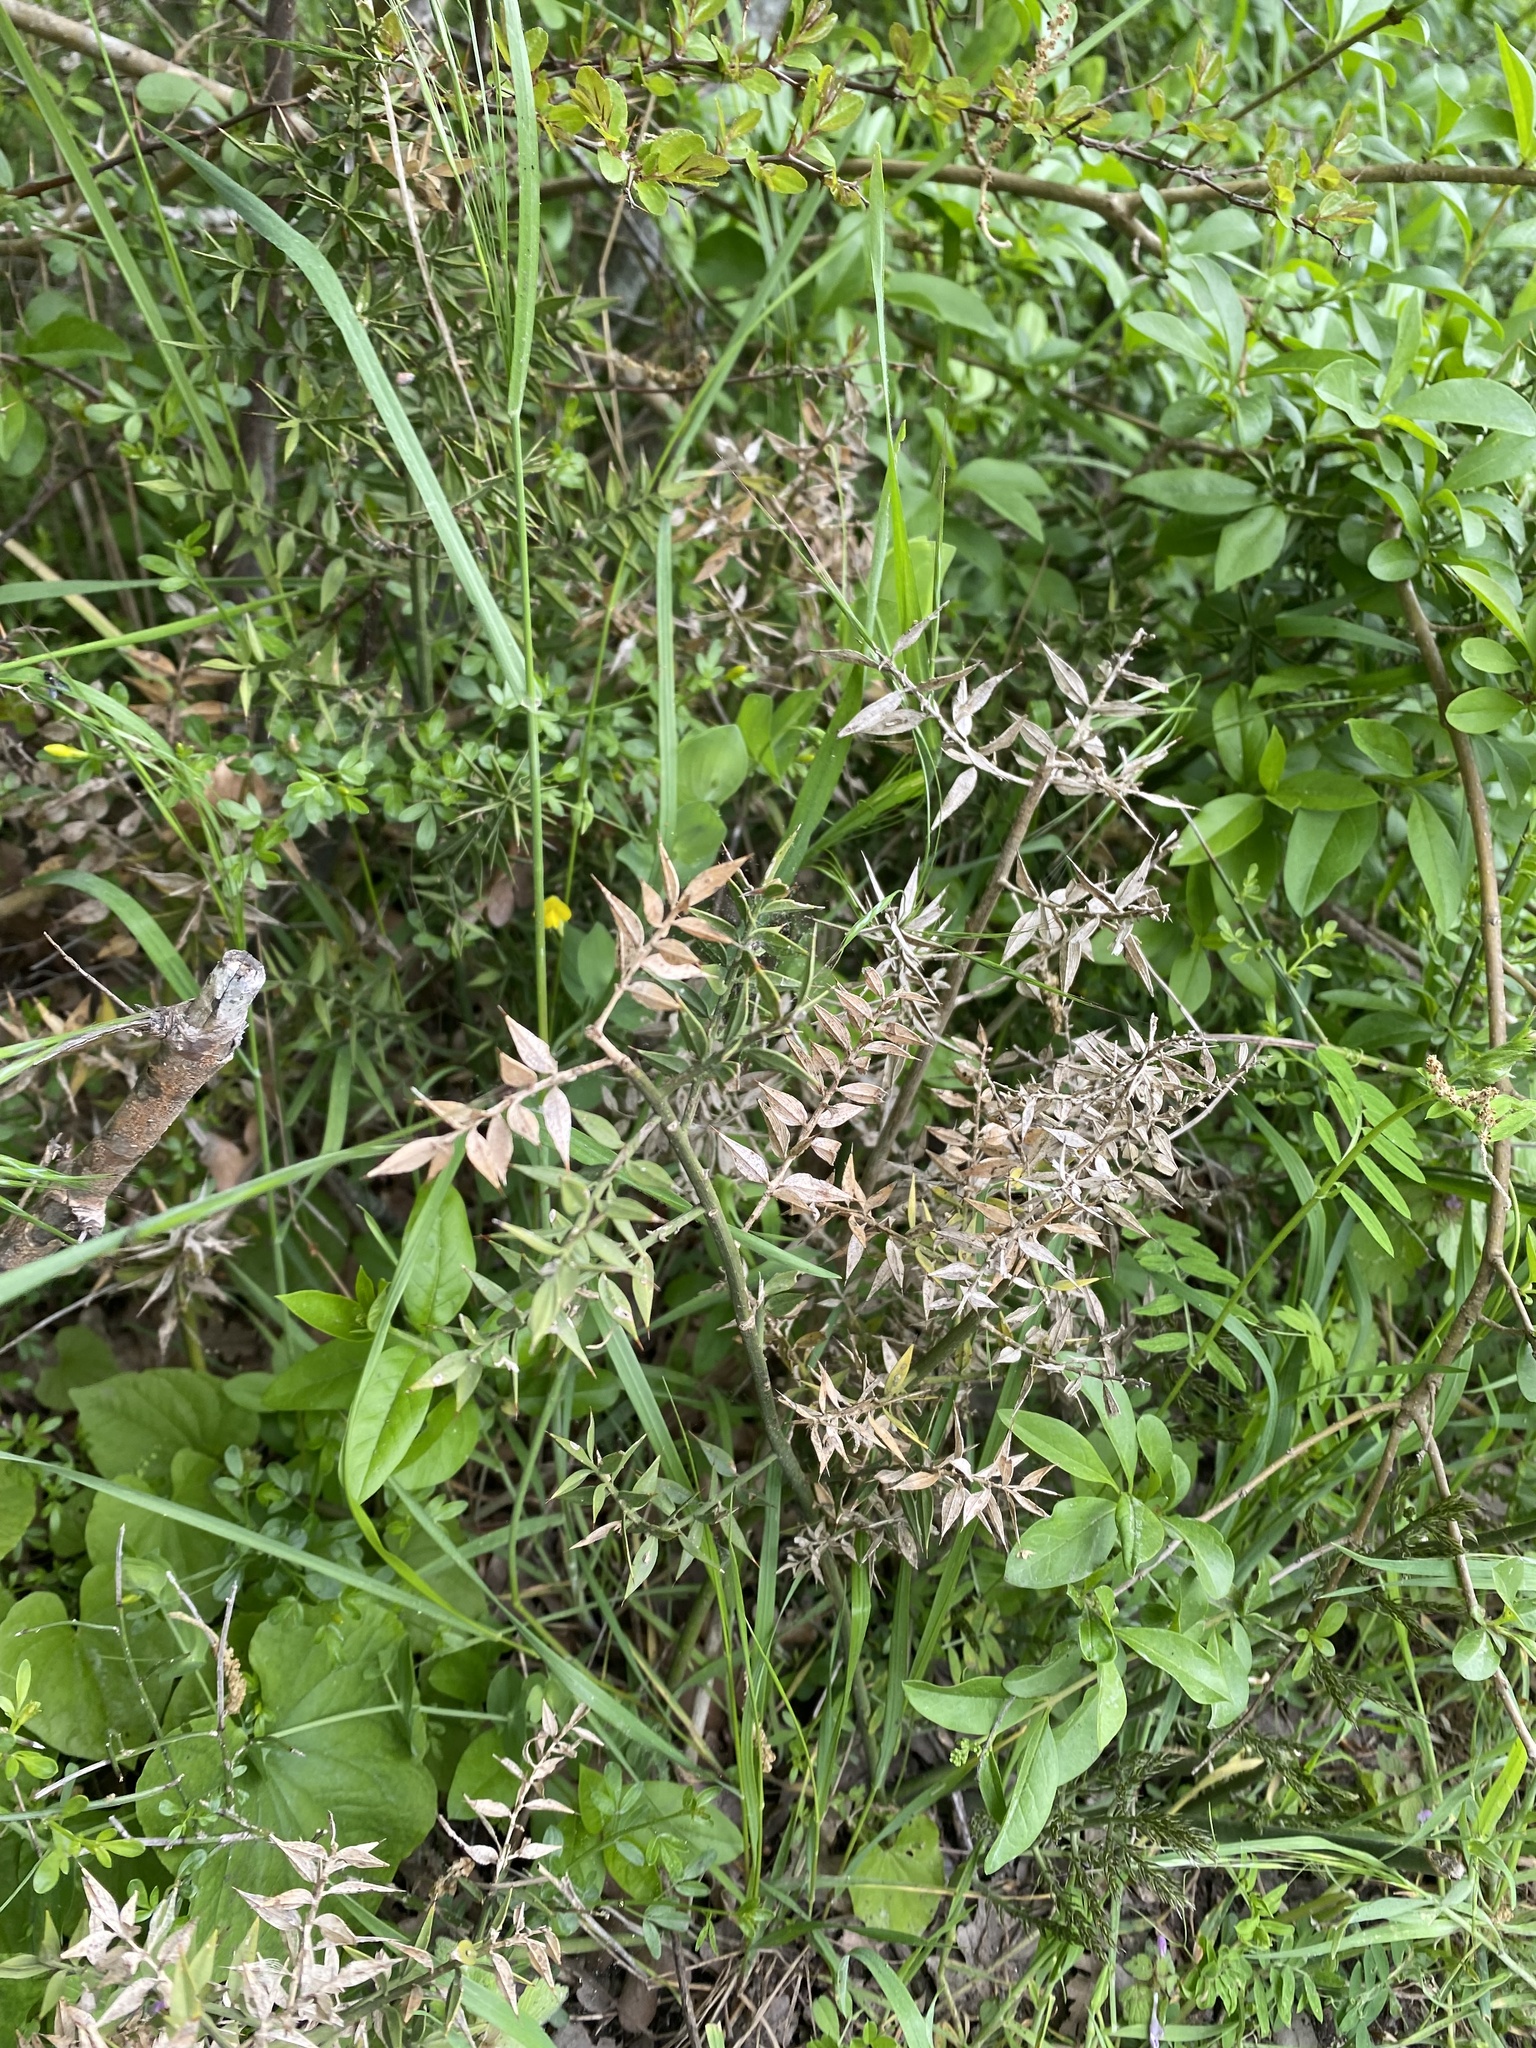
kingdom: Plantae
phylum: Tracheophyta
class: Liliopsida
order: Asparagales
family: Asparagaceae
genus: Ruscus
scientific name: Ruscus aculeatus
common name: Butcher's-broom
